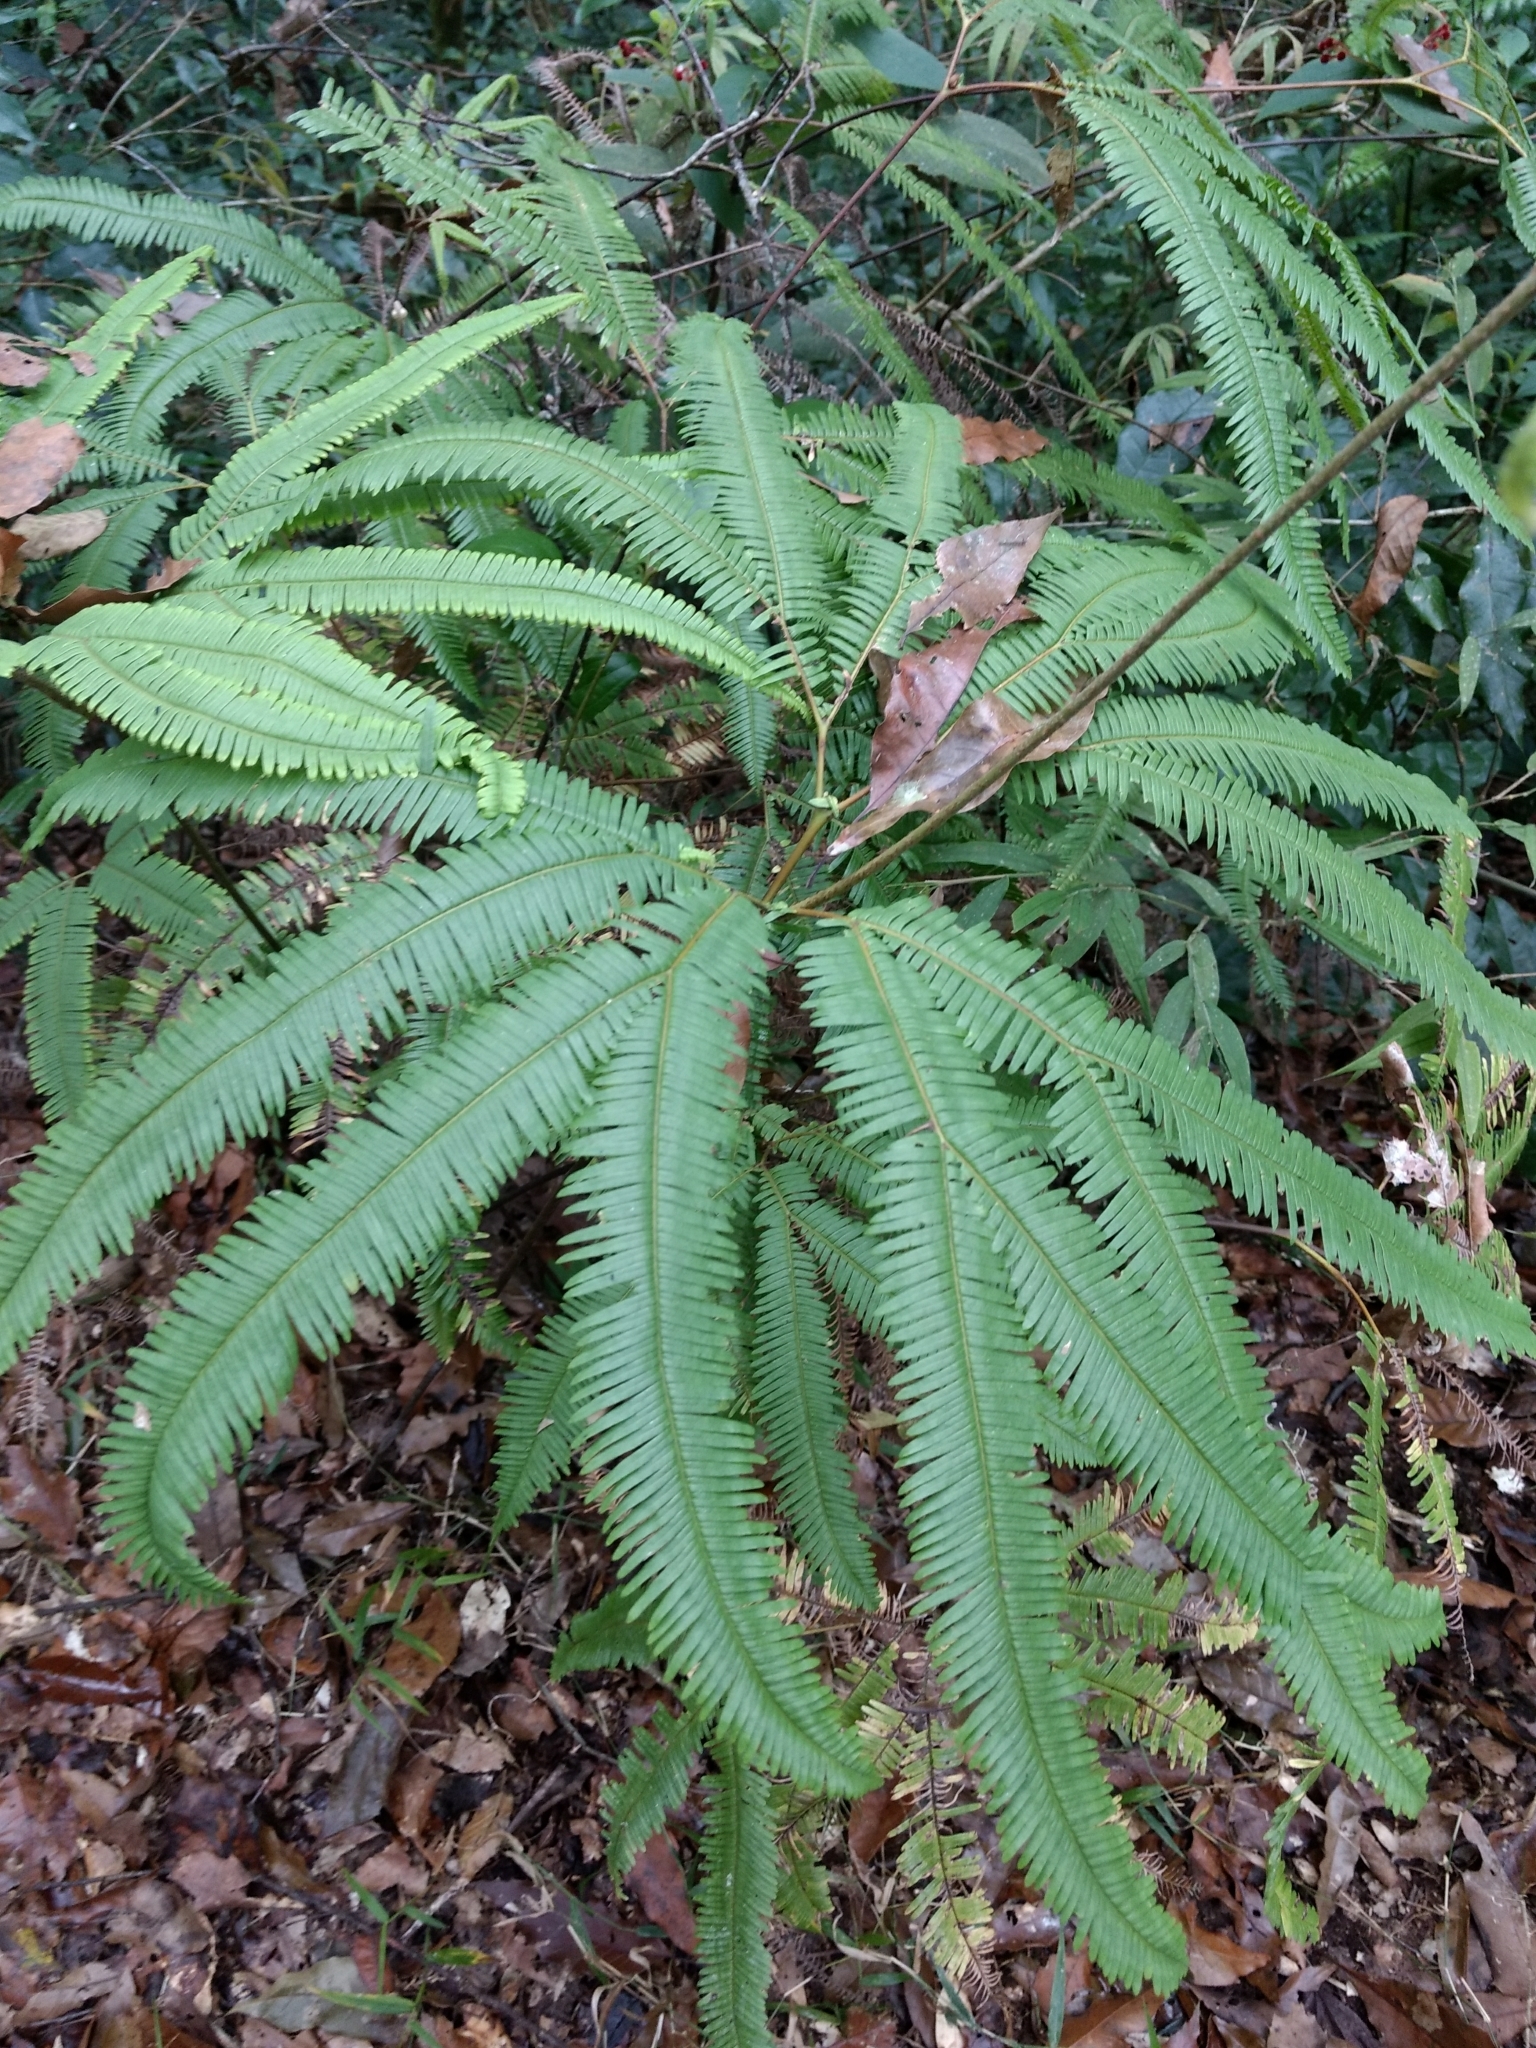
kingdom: Plantae
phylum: Tracheophyta
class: Polypodiopsida
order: Gleicheniales
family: Gleicheniaceae
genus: Sticherus
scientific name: Sticherus furcatus
